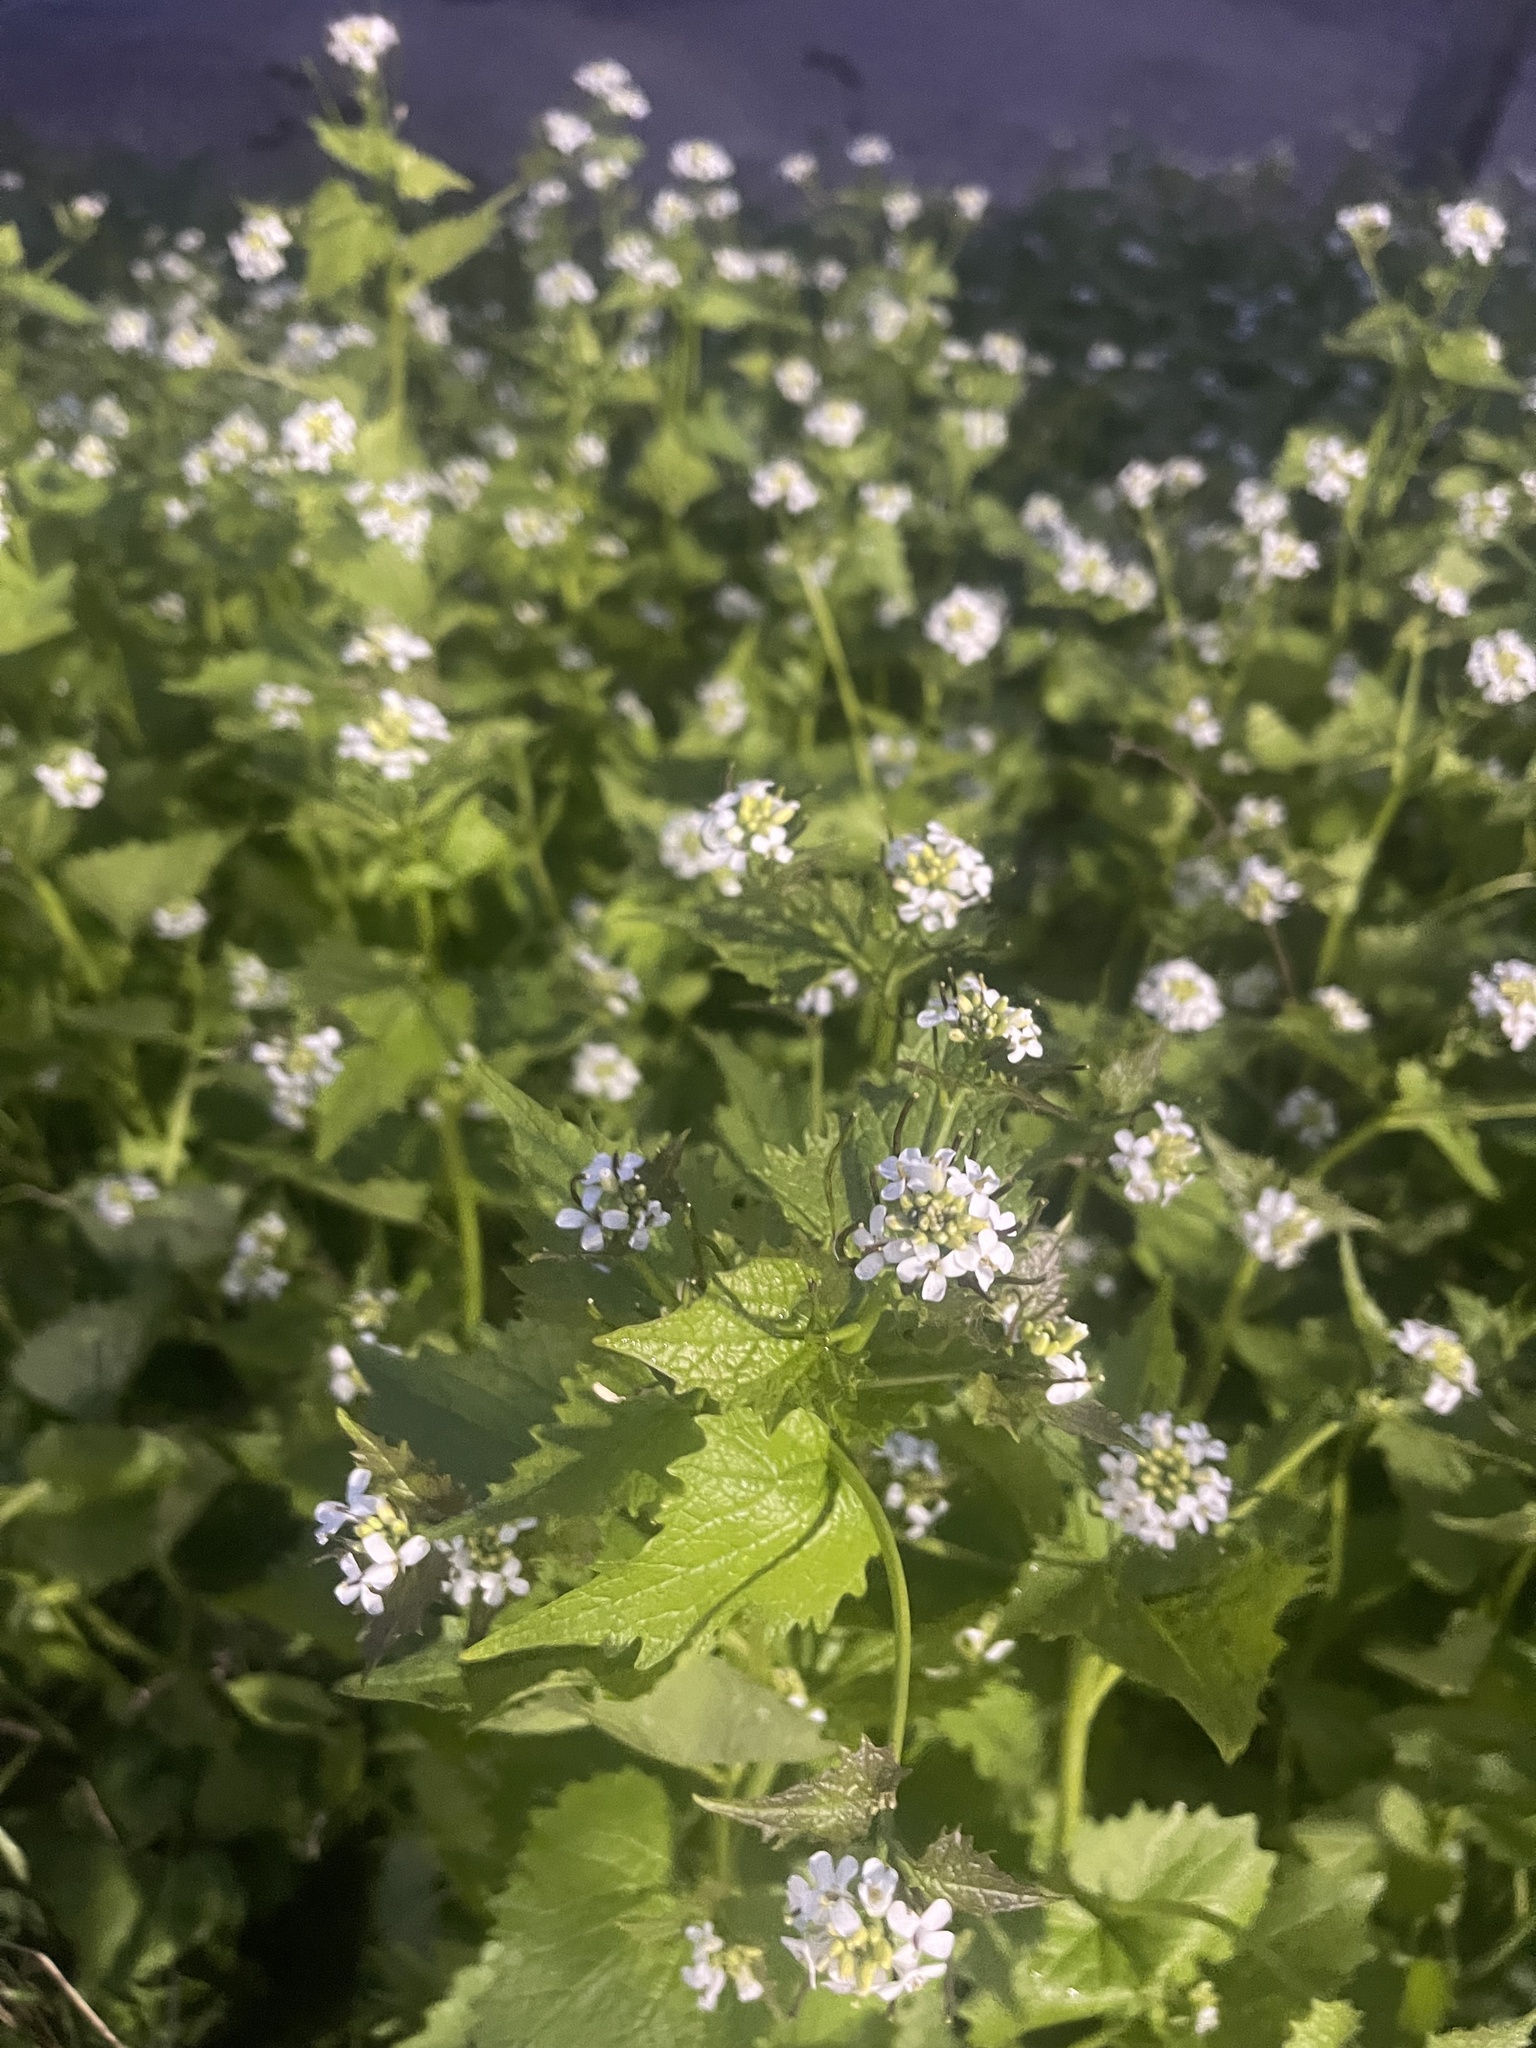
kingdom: Plantae
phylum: Tracheophyta
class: Magnoliopsida
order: Brassicales
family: Brassicaceae
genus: Alliaria
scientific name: Alliaria petiolata
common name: Garlic mustard
